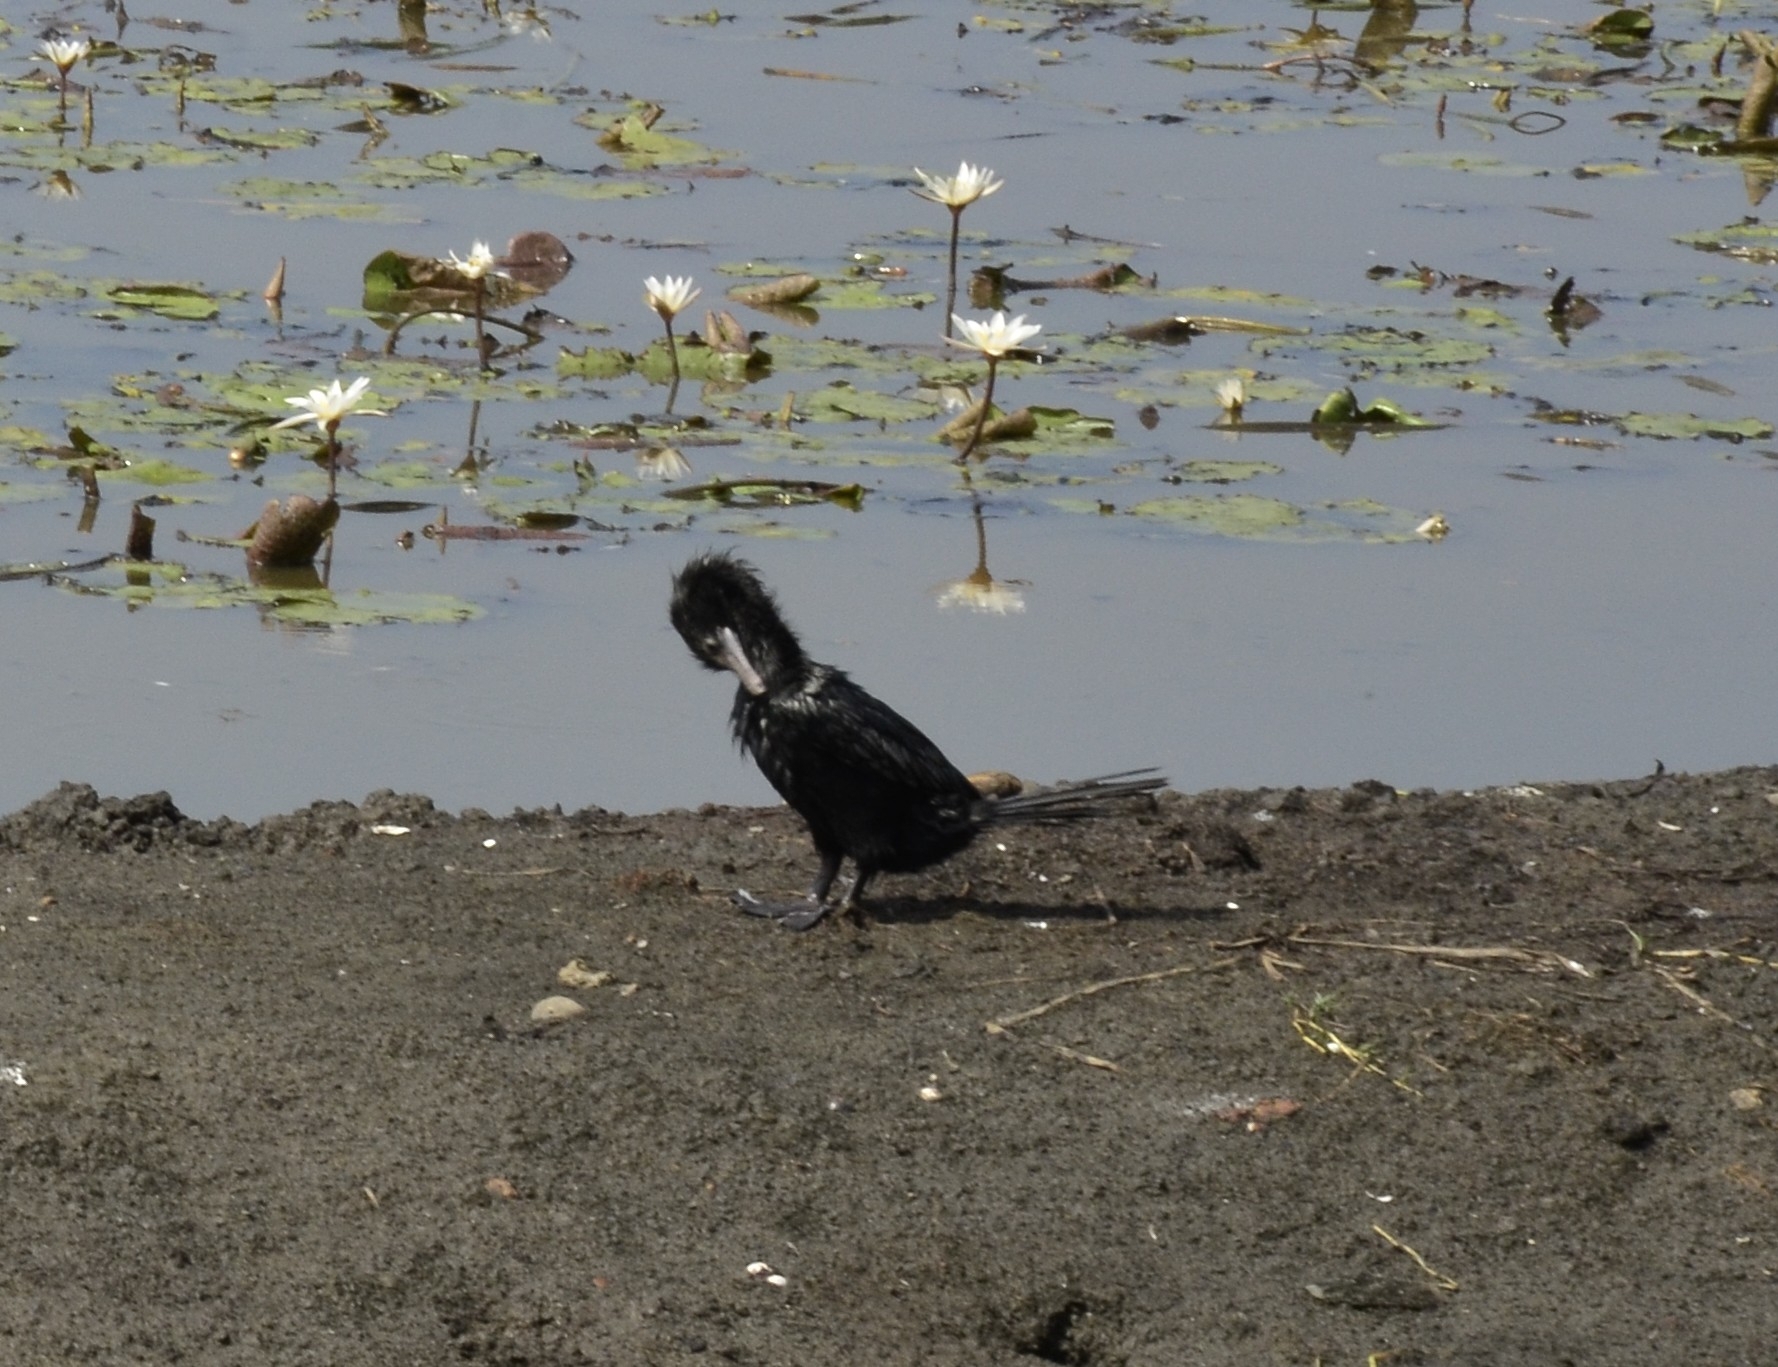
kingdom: Animalia
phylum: Chordata
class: Aves
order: Suliformes
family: Phalacrocoracidae
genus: Microcarbo
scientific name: Microcarbo niger
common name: Little cormorant
